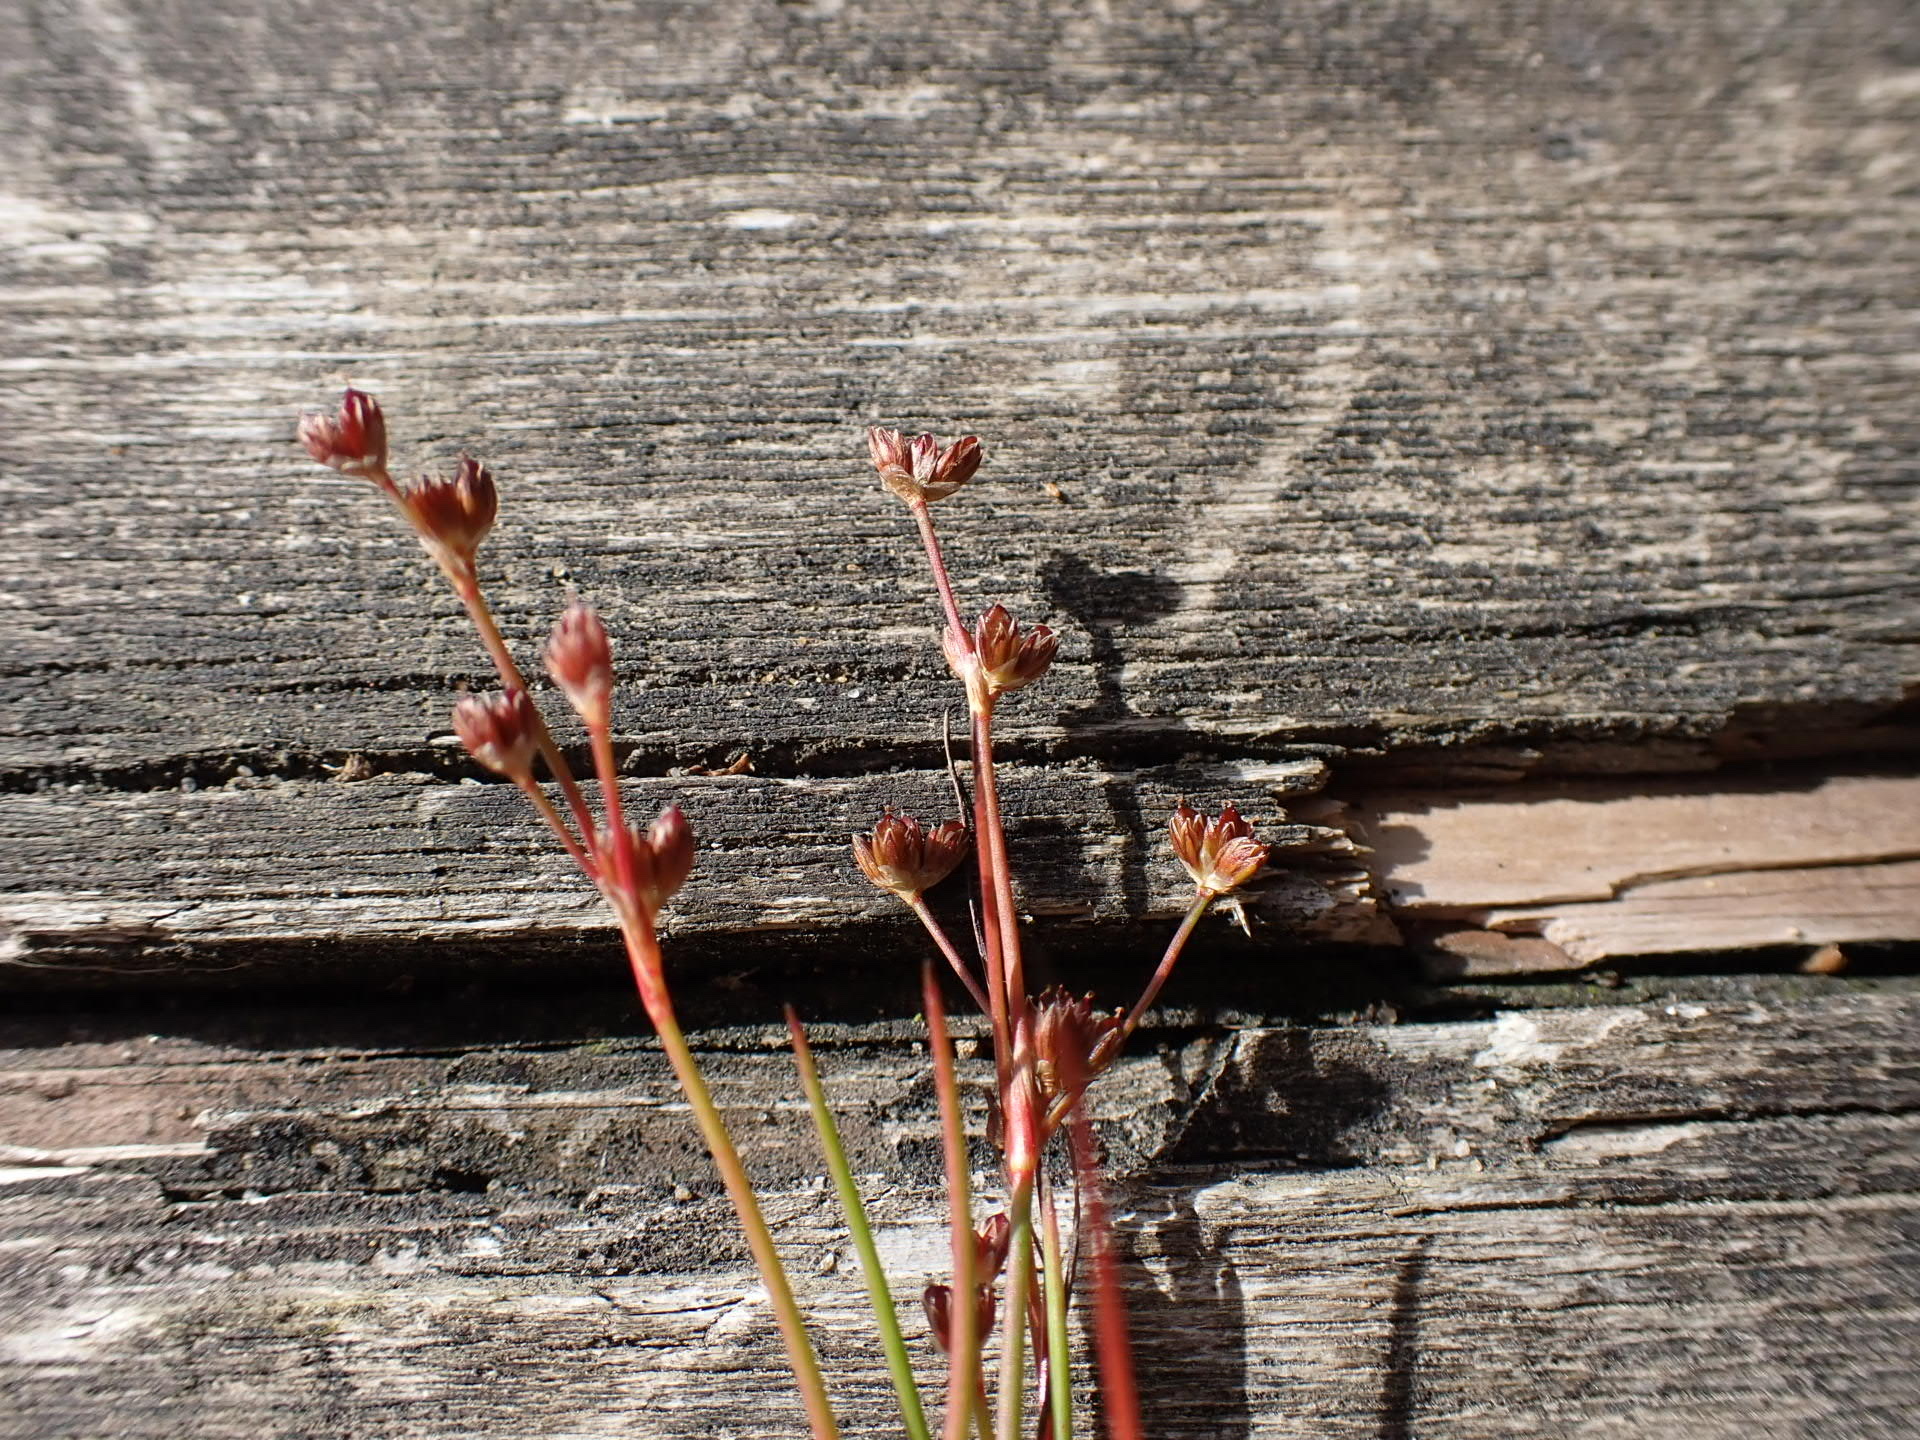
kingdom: Plantae
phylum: Tracheophyta
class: Liliopsida
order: Poales
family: Juncaceae
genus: Juncus
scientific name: Juncus bulbosus
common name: Bulbous rush
